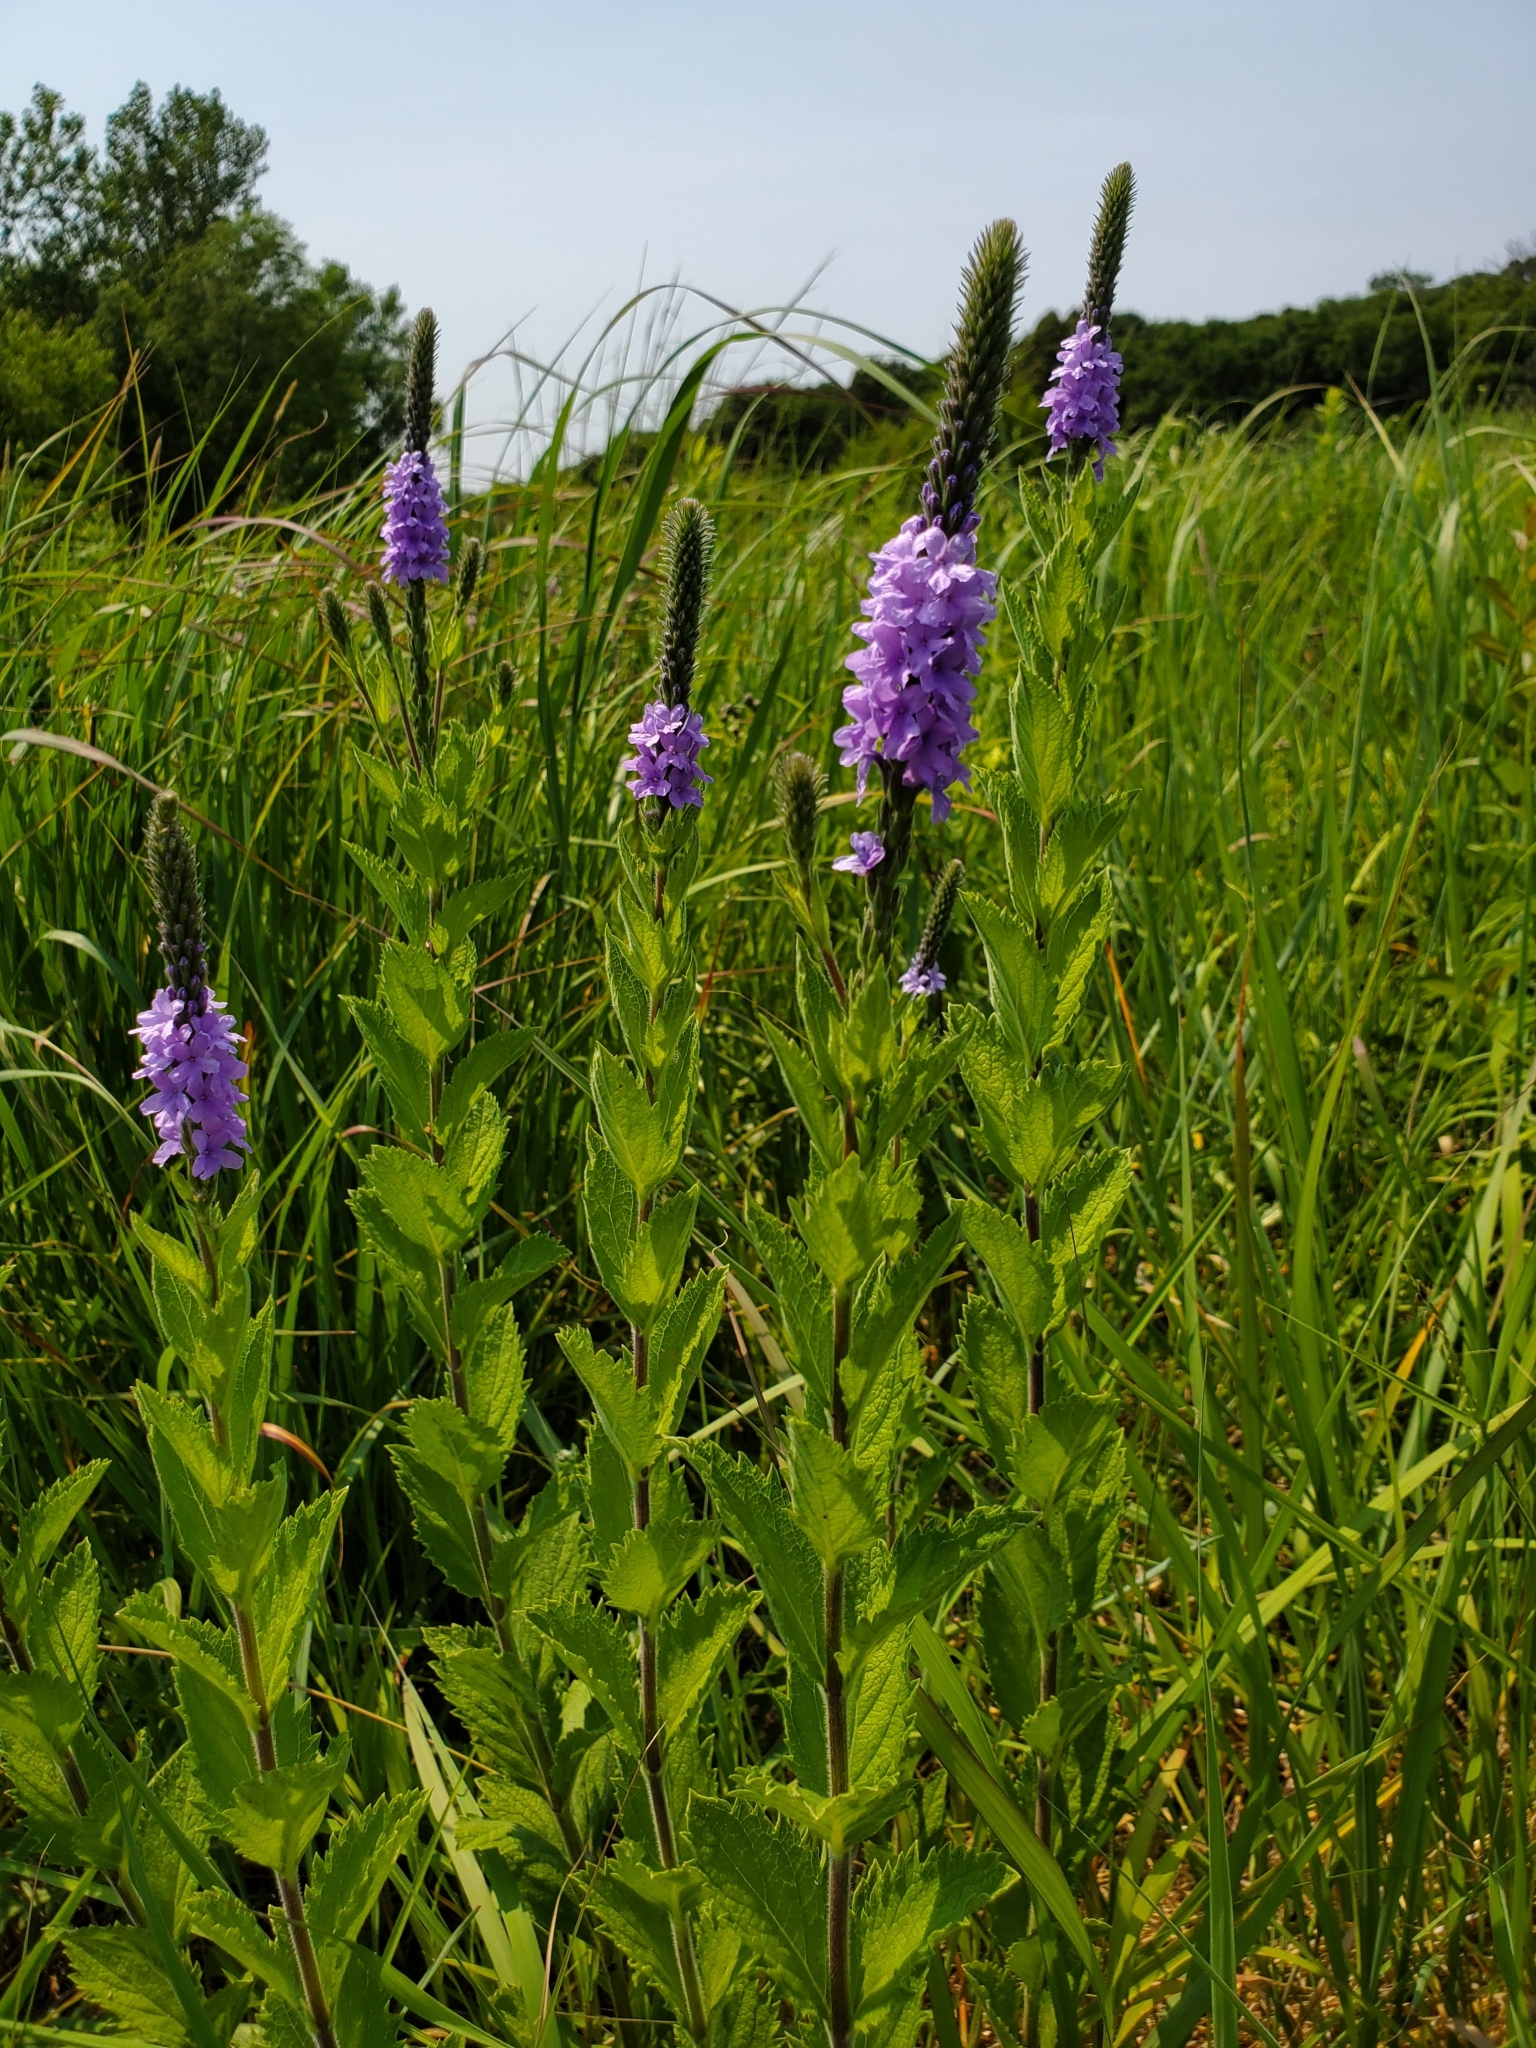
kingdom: Plantae
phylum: Tracheophyta
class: Magnoliopsida
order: Lamiales
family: Verbenaceae
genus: Verbena
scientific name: Verbena stricta
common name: Hoary vervain
